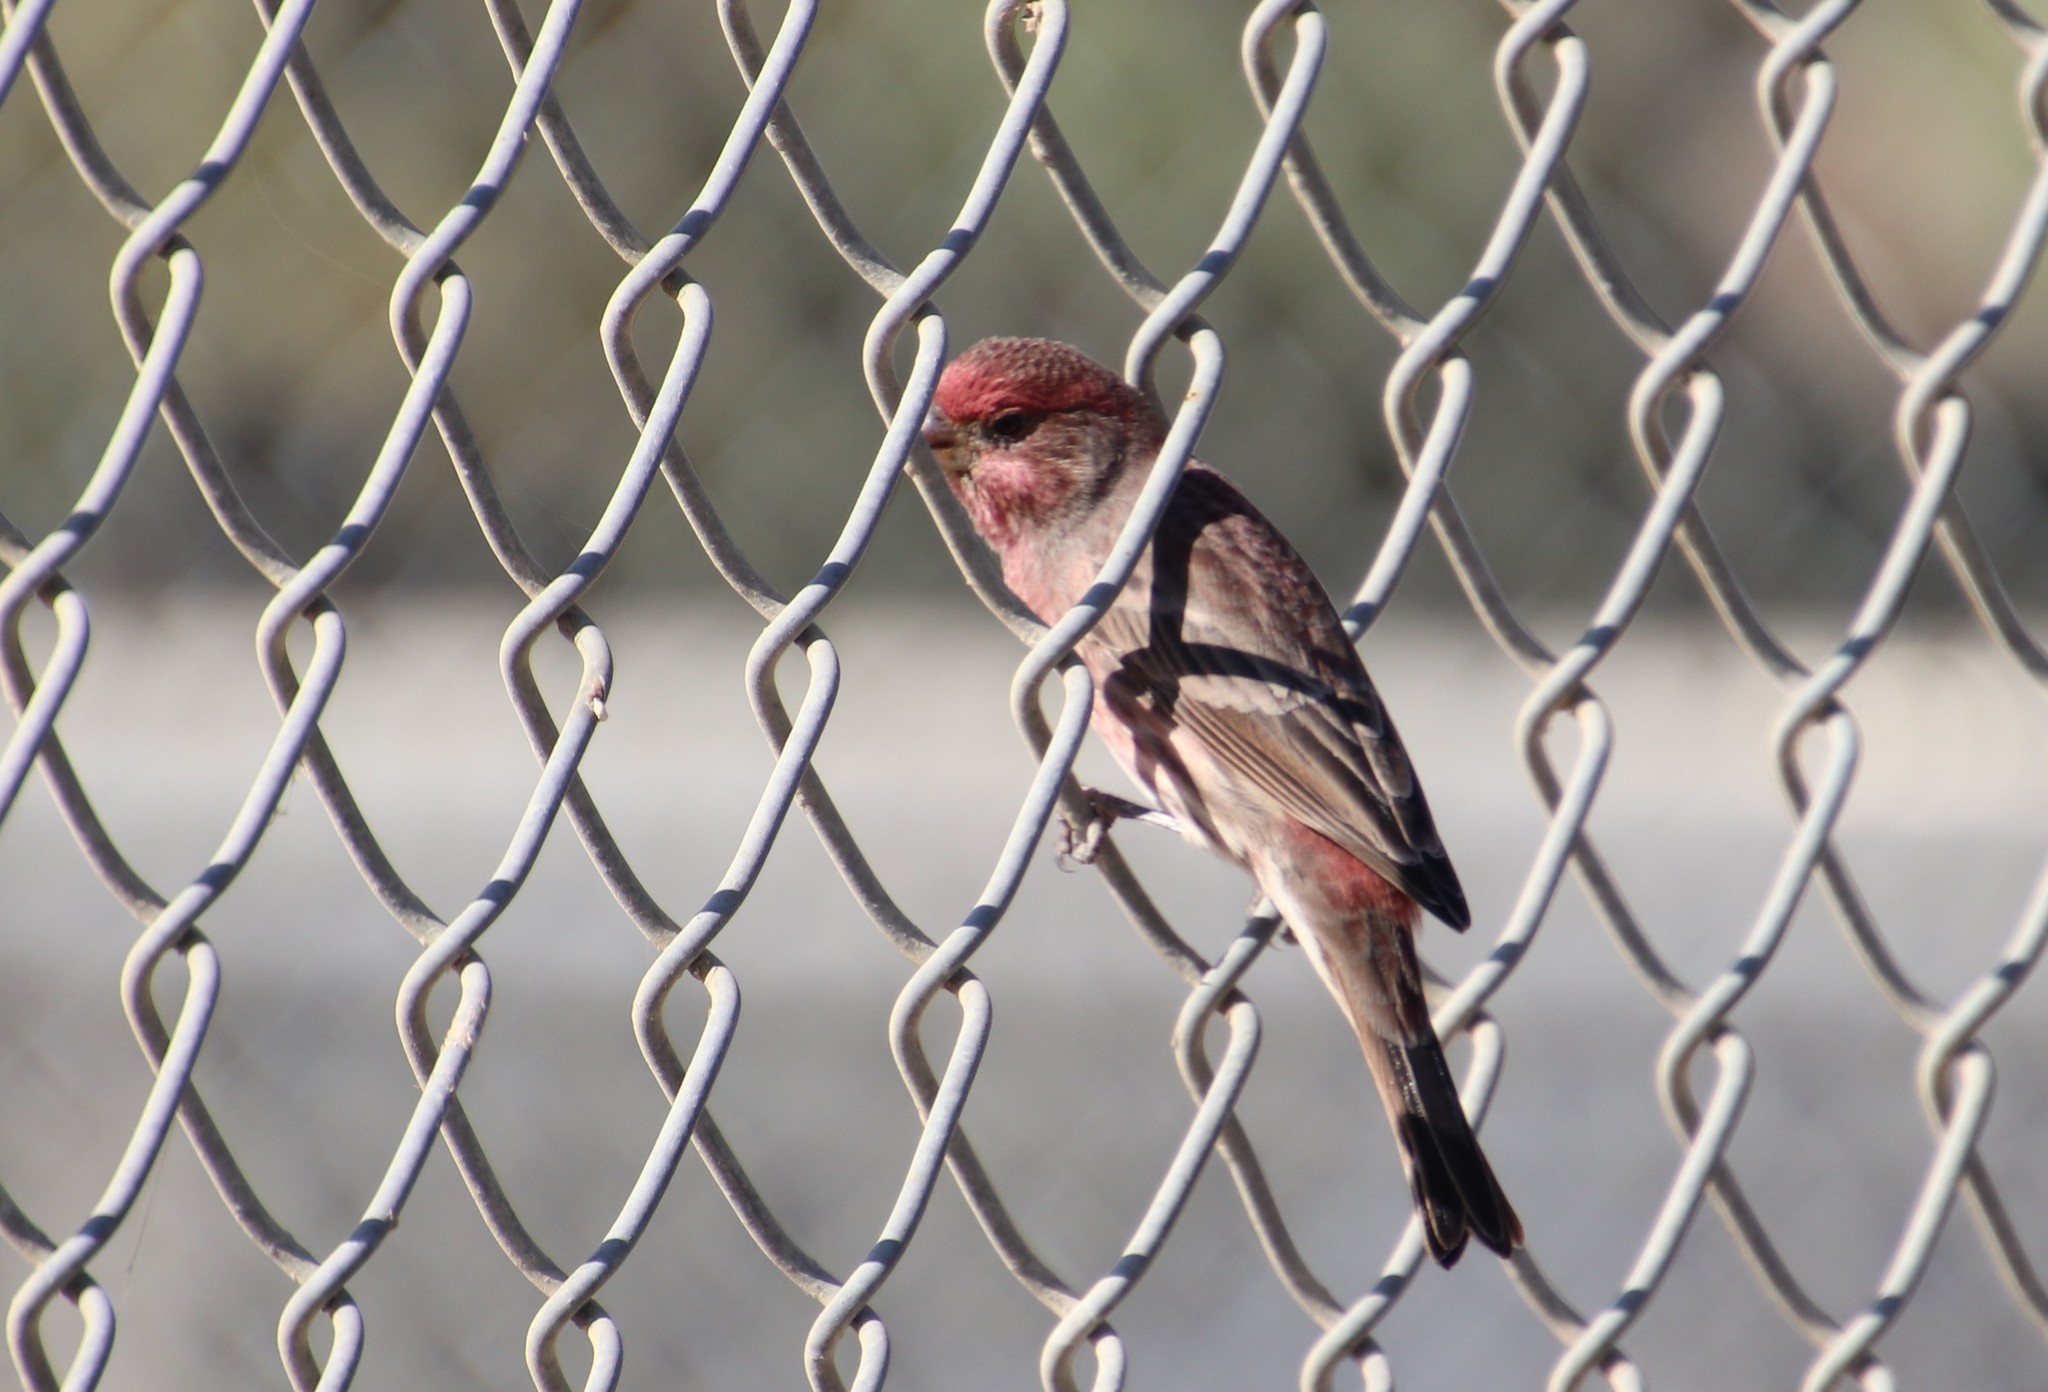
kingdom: Animalia
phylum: Chordata
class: Aves
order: Passeriformes
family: Fringillidae
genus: Haemorhous
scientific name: Haemorhous mexicanus
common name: House finch
